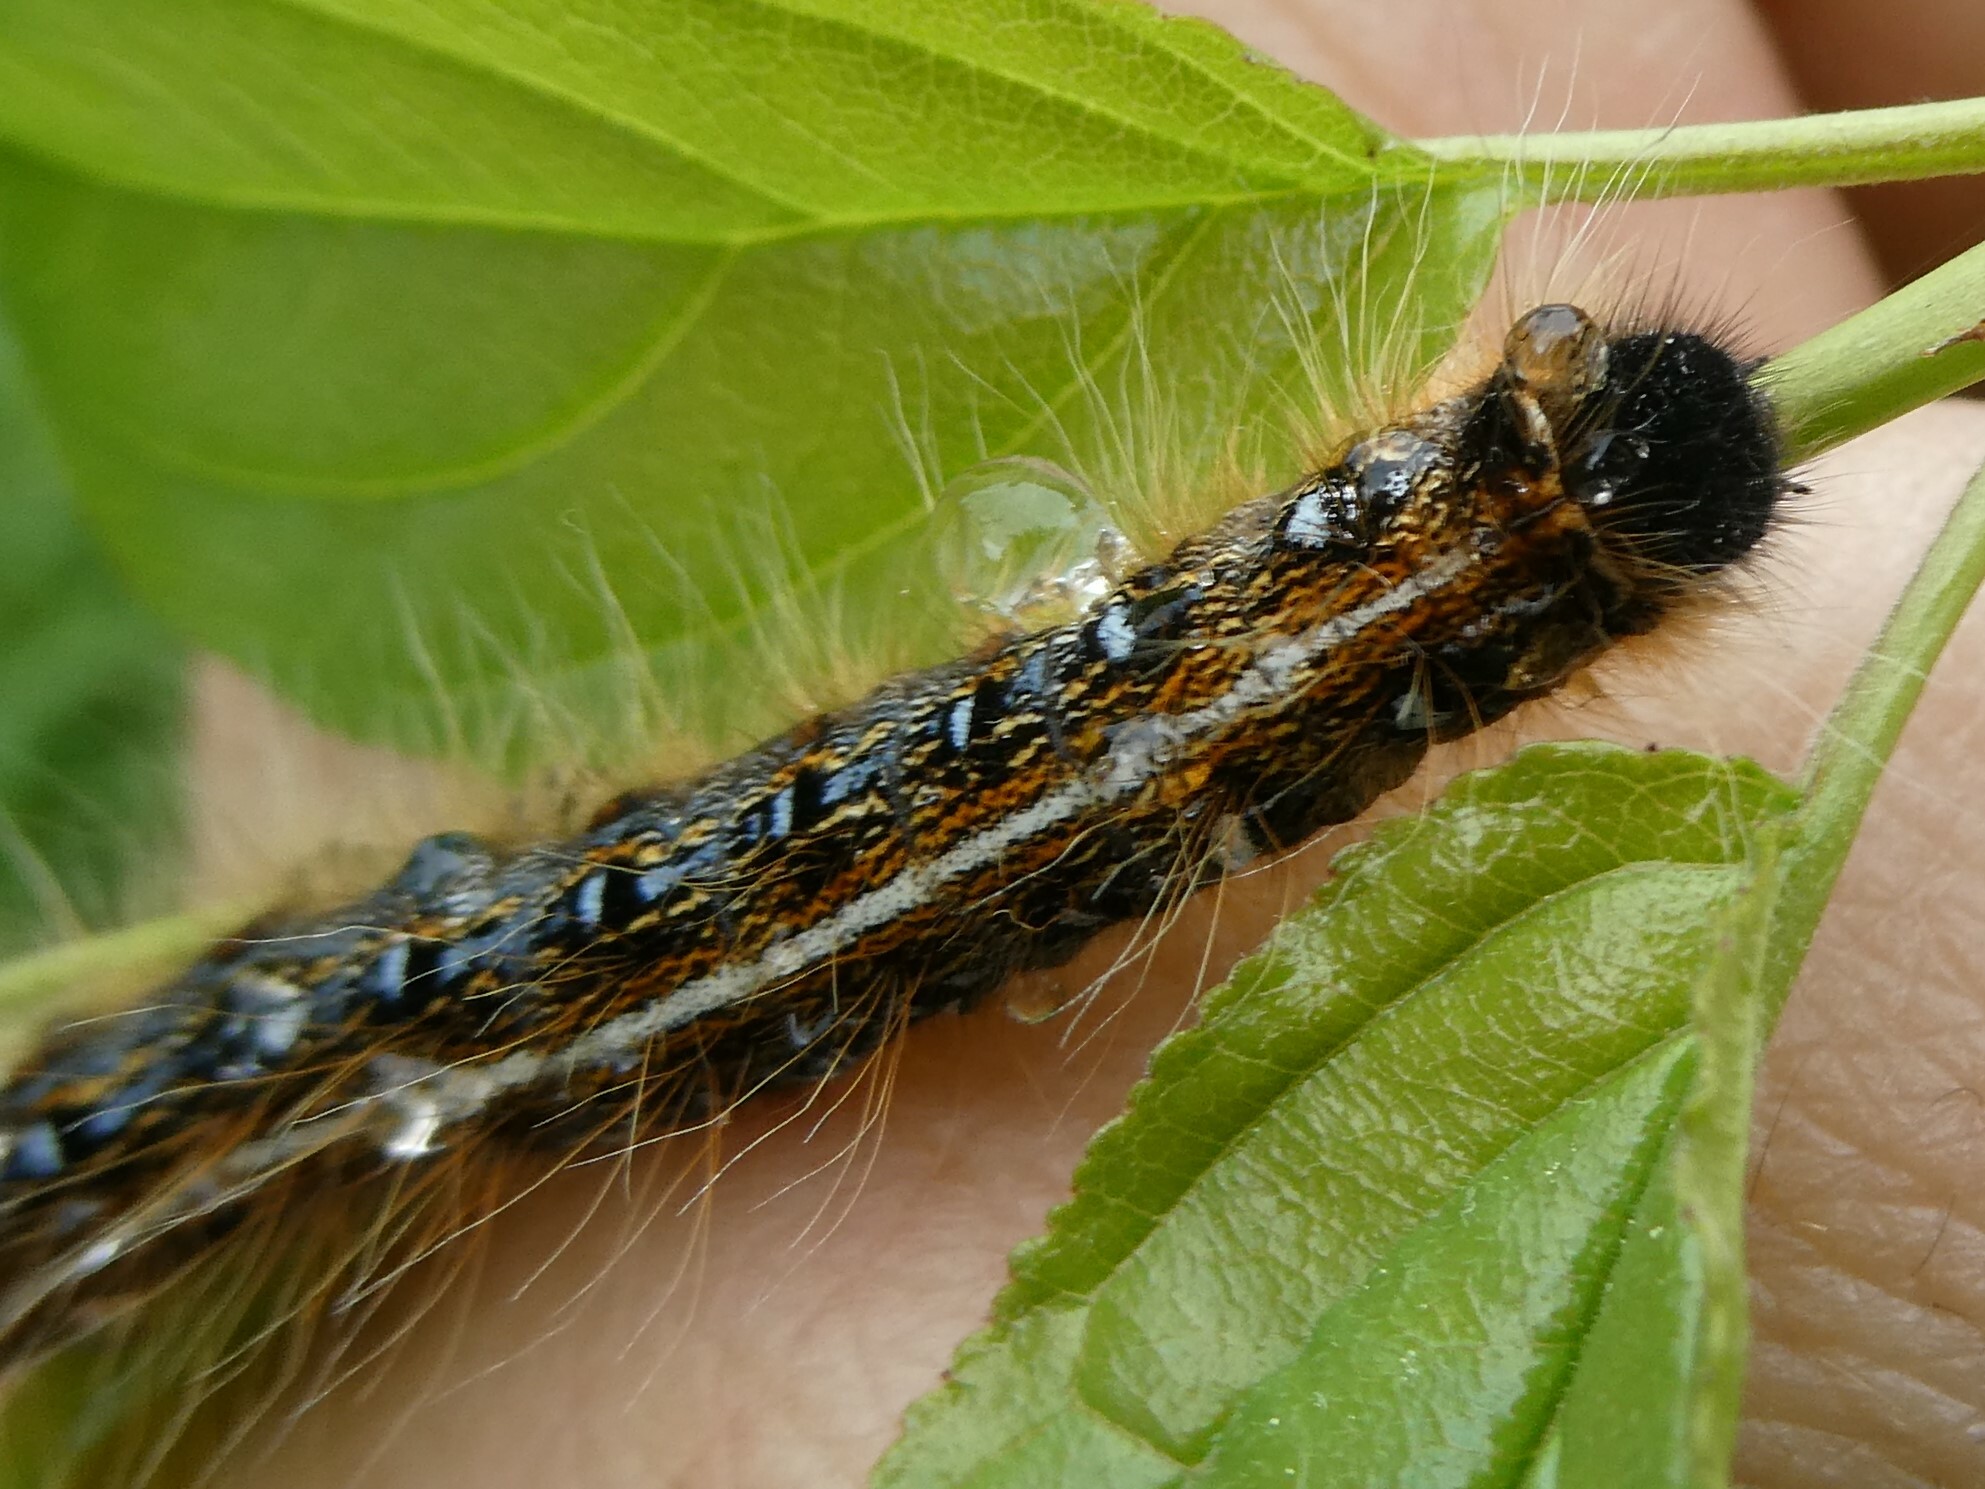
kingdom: Animalia
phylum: Arthropoda
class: Insecta
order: Lepidoptera
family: Lasiocampidae
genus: Malacosoma
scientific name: Malacosoma americana
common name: Eastern tent caterpillar moth
